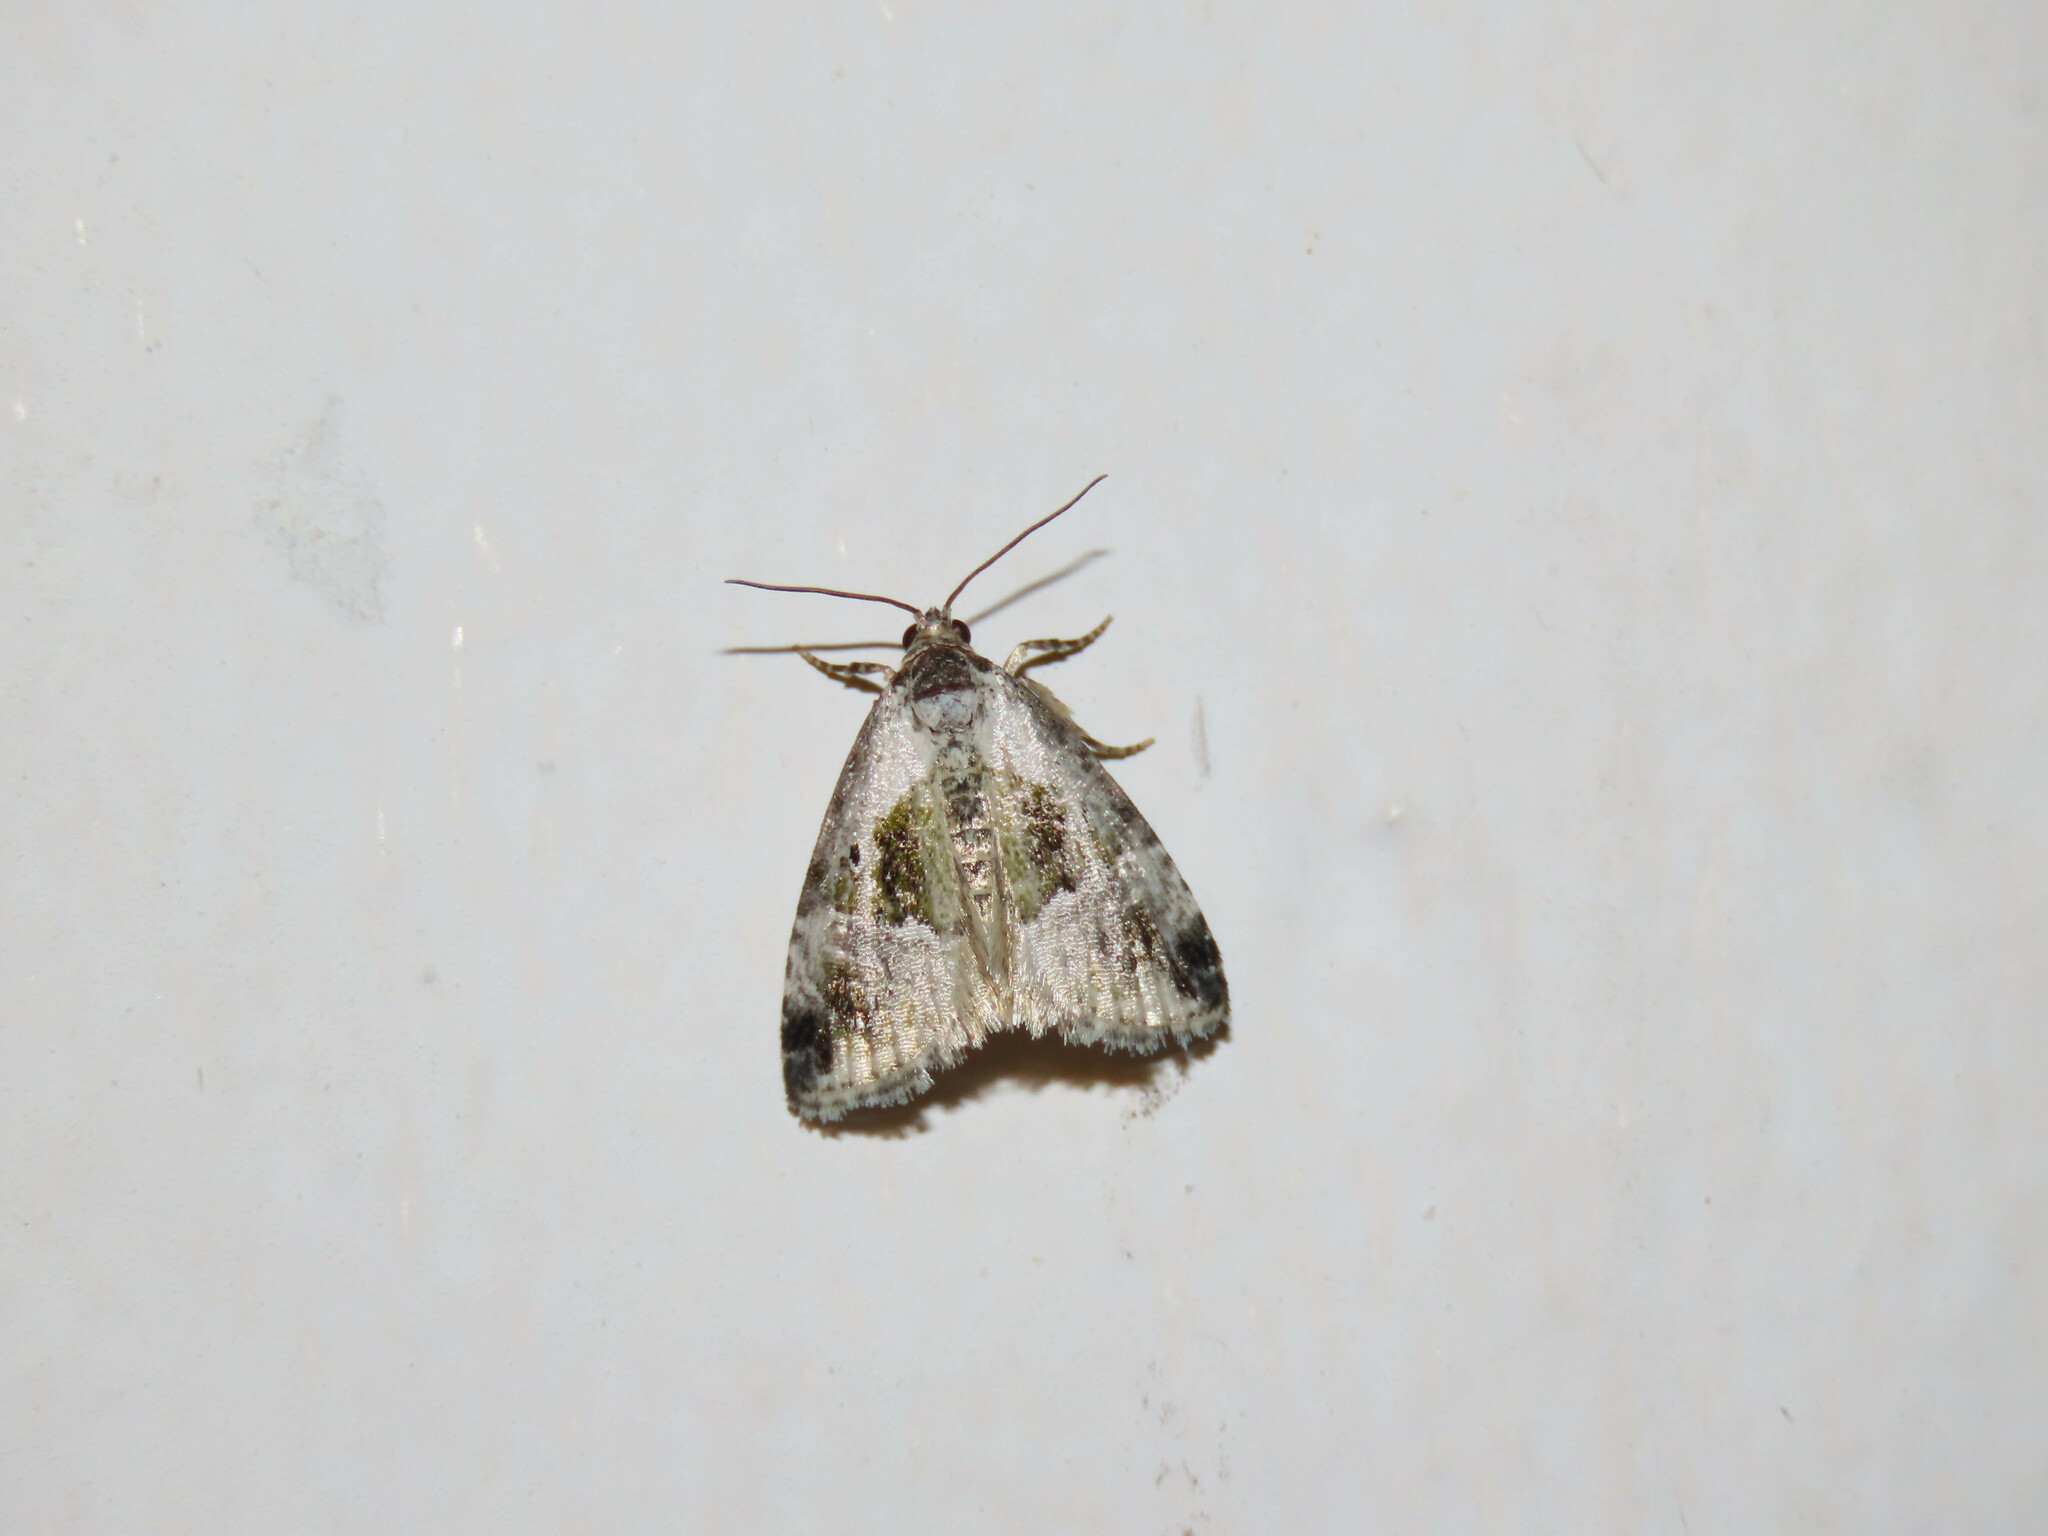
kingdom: Animalia
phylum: Arthropoda
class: Insecta
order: Lepidoptera
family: Noctuidae
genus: Maliattha
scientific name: Maliattha synochitis
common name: Black-dotted glyph
